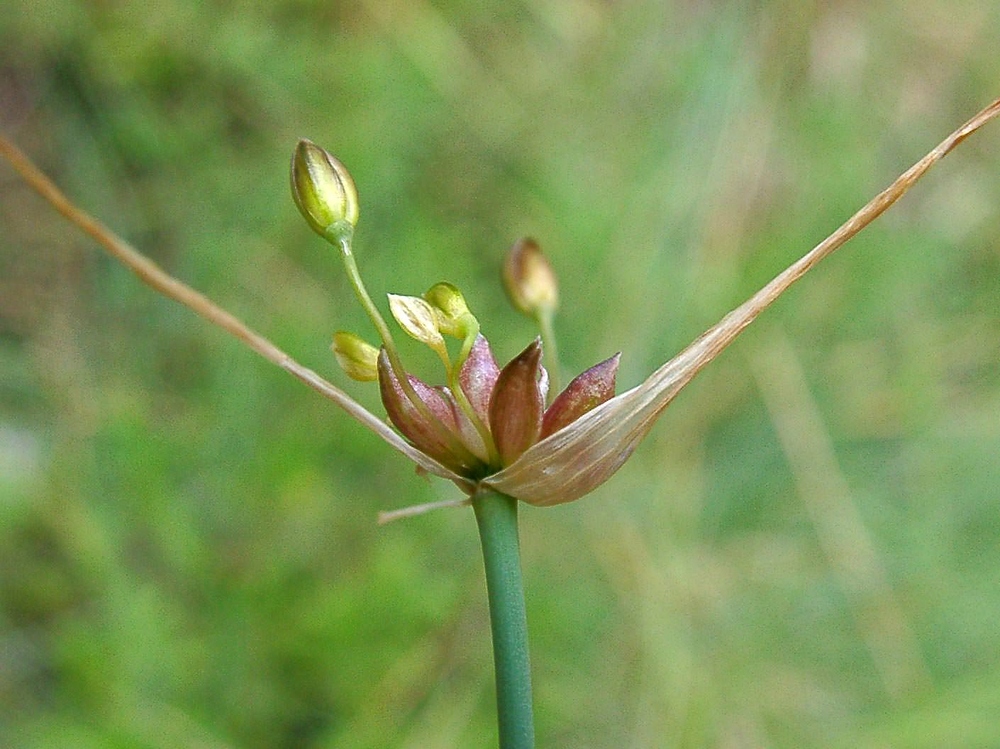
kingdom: Plantae
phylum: Tracheophyta
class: Liliopsida
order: Asparagales
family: Amaryllidaceae
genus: Allium
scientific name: Allium oleraceum
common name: Field garlic
